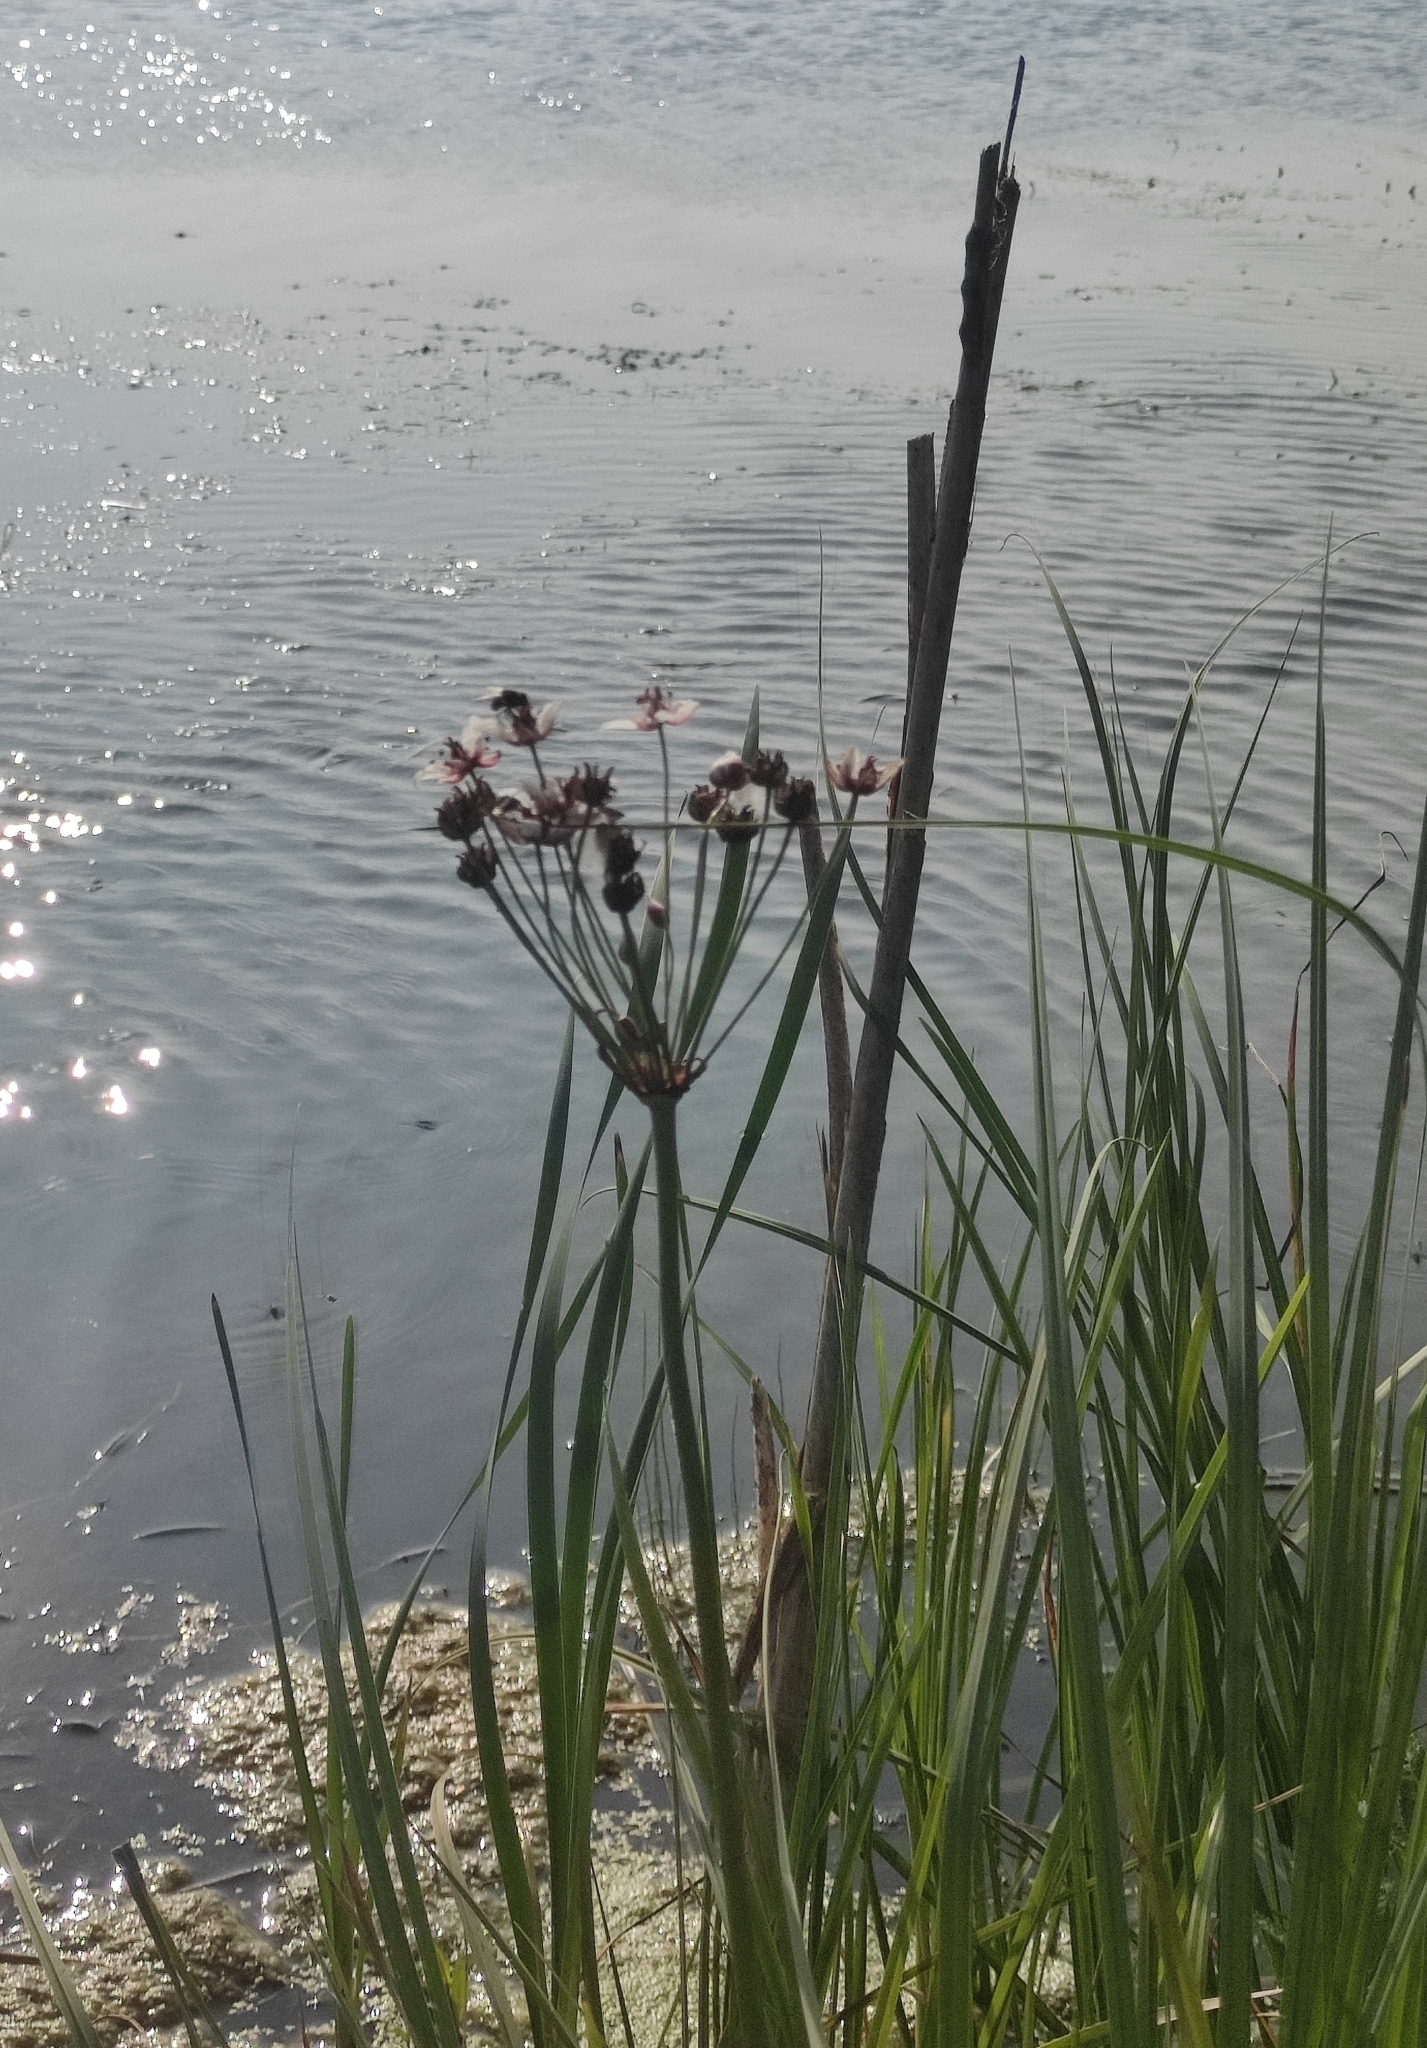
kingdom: Plantae
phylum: Tracheophyta
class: Liliopsida
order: Alismatales
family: Butomaceae
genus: Butomus
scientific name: Butomus umbellatus
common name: Flowering-rush
